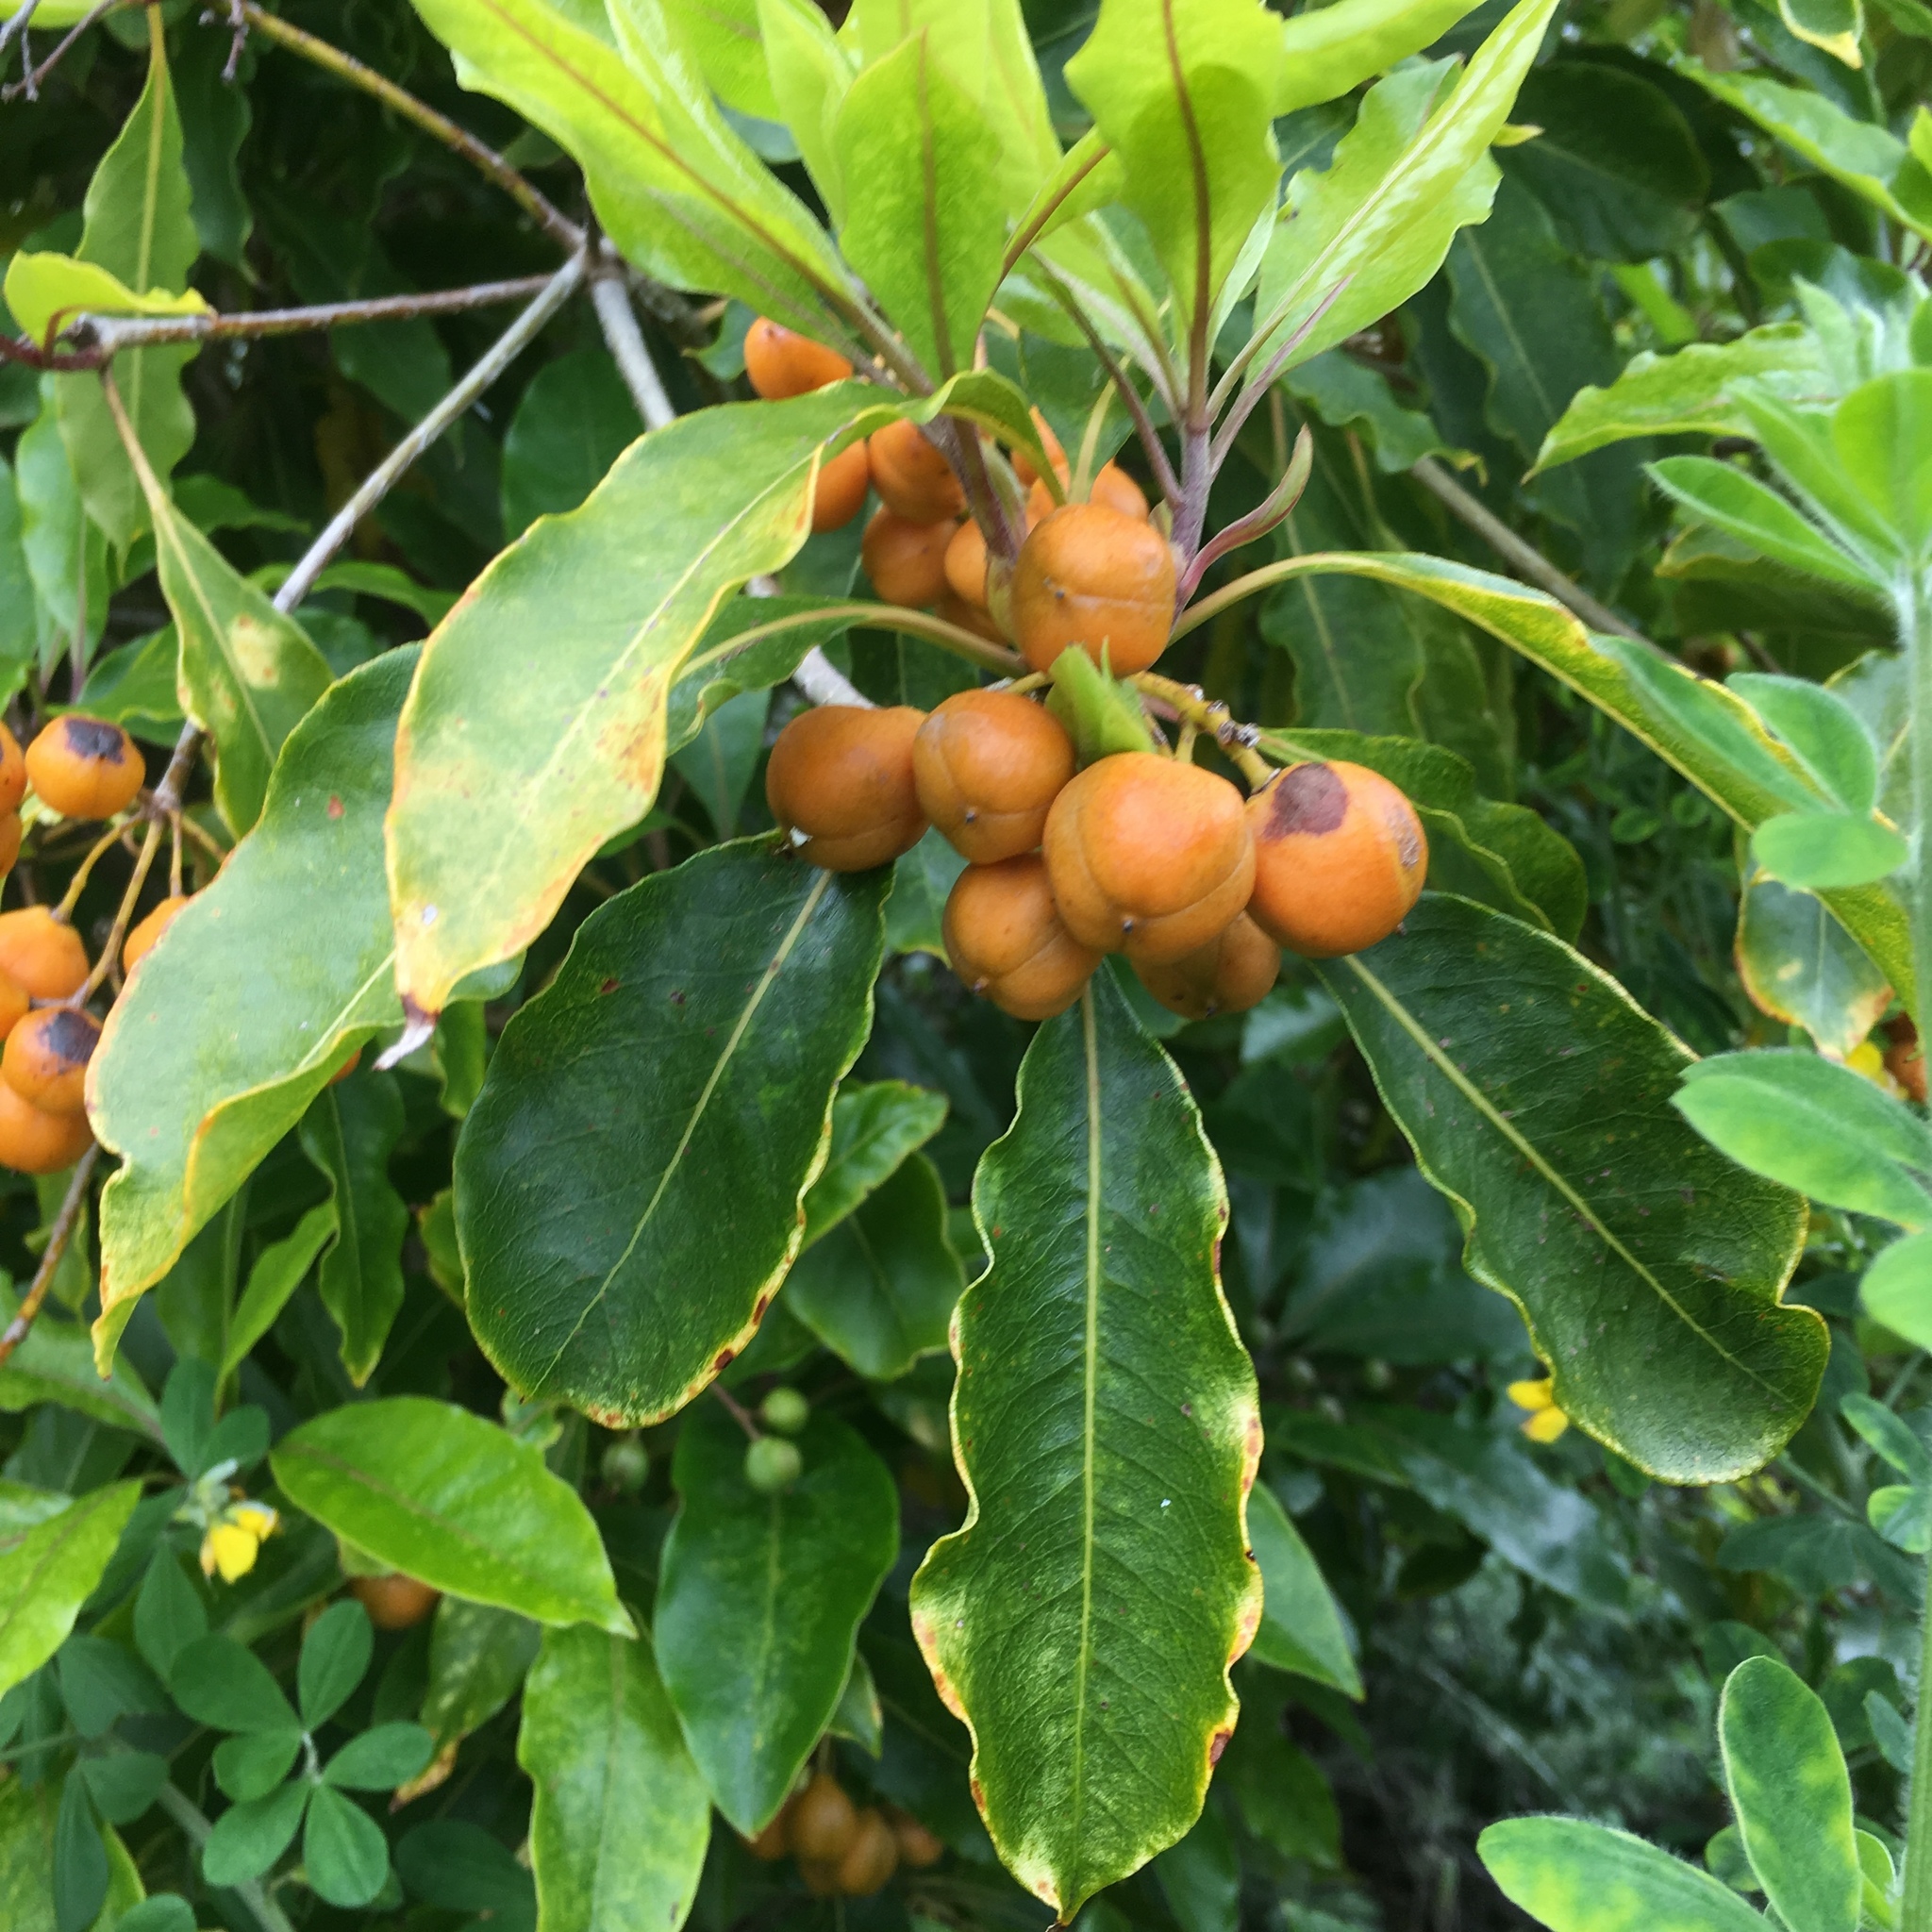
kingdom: Plantae
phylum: Tracheophyta
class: Magnoliopsida
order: Apiales
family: Pittosporaceae
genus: Pittosporum
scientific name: Pittosporum undulatum
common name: Australian cheesewood
